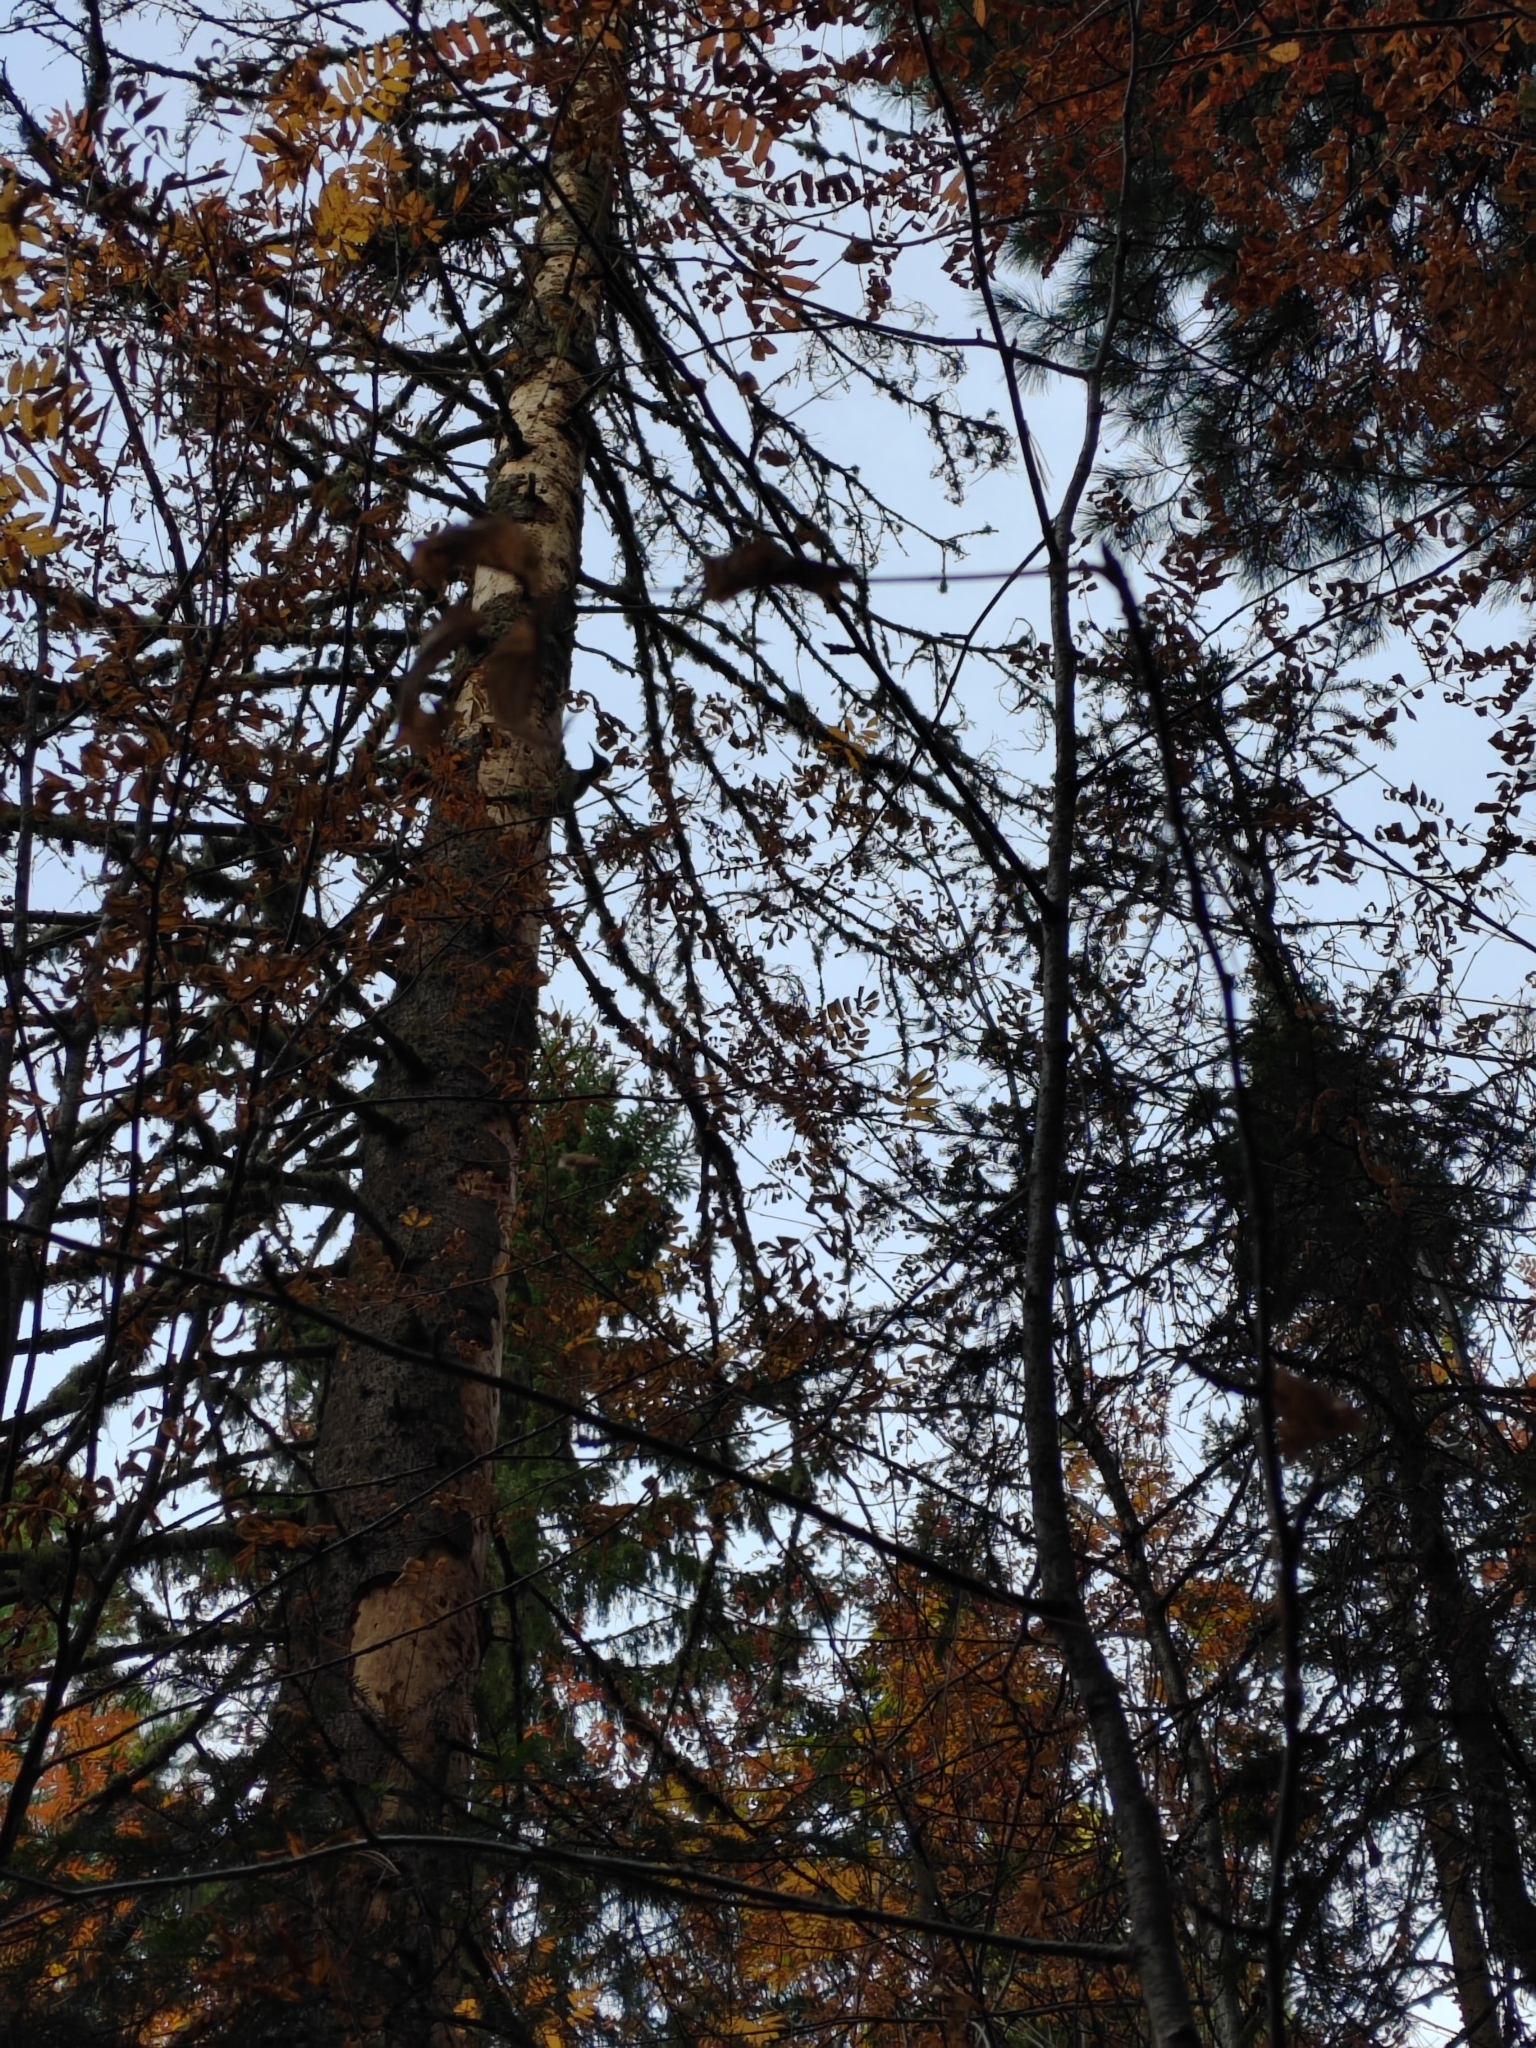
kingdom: Animalia
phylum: Chordata
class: Aves
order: Piciformes
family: Picidae
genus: Dryocopus
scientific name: Dryocopus martius
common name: Black woodpecker
